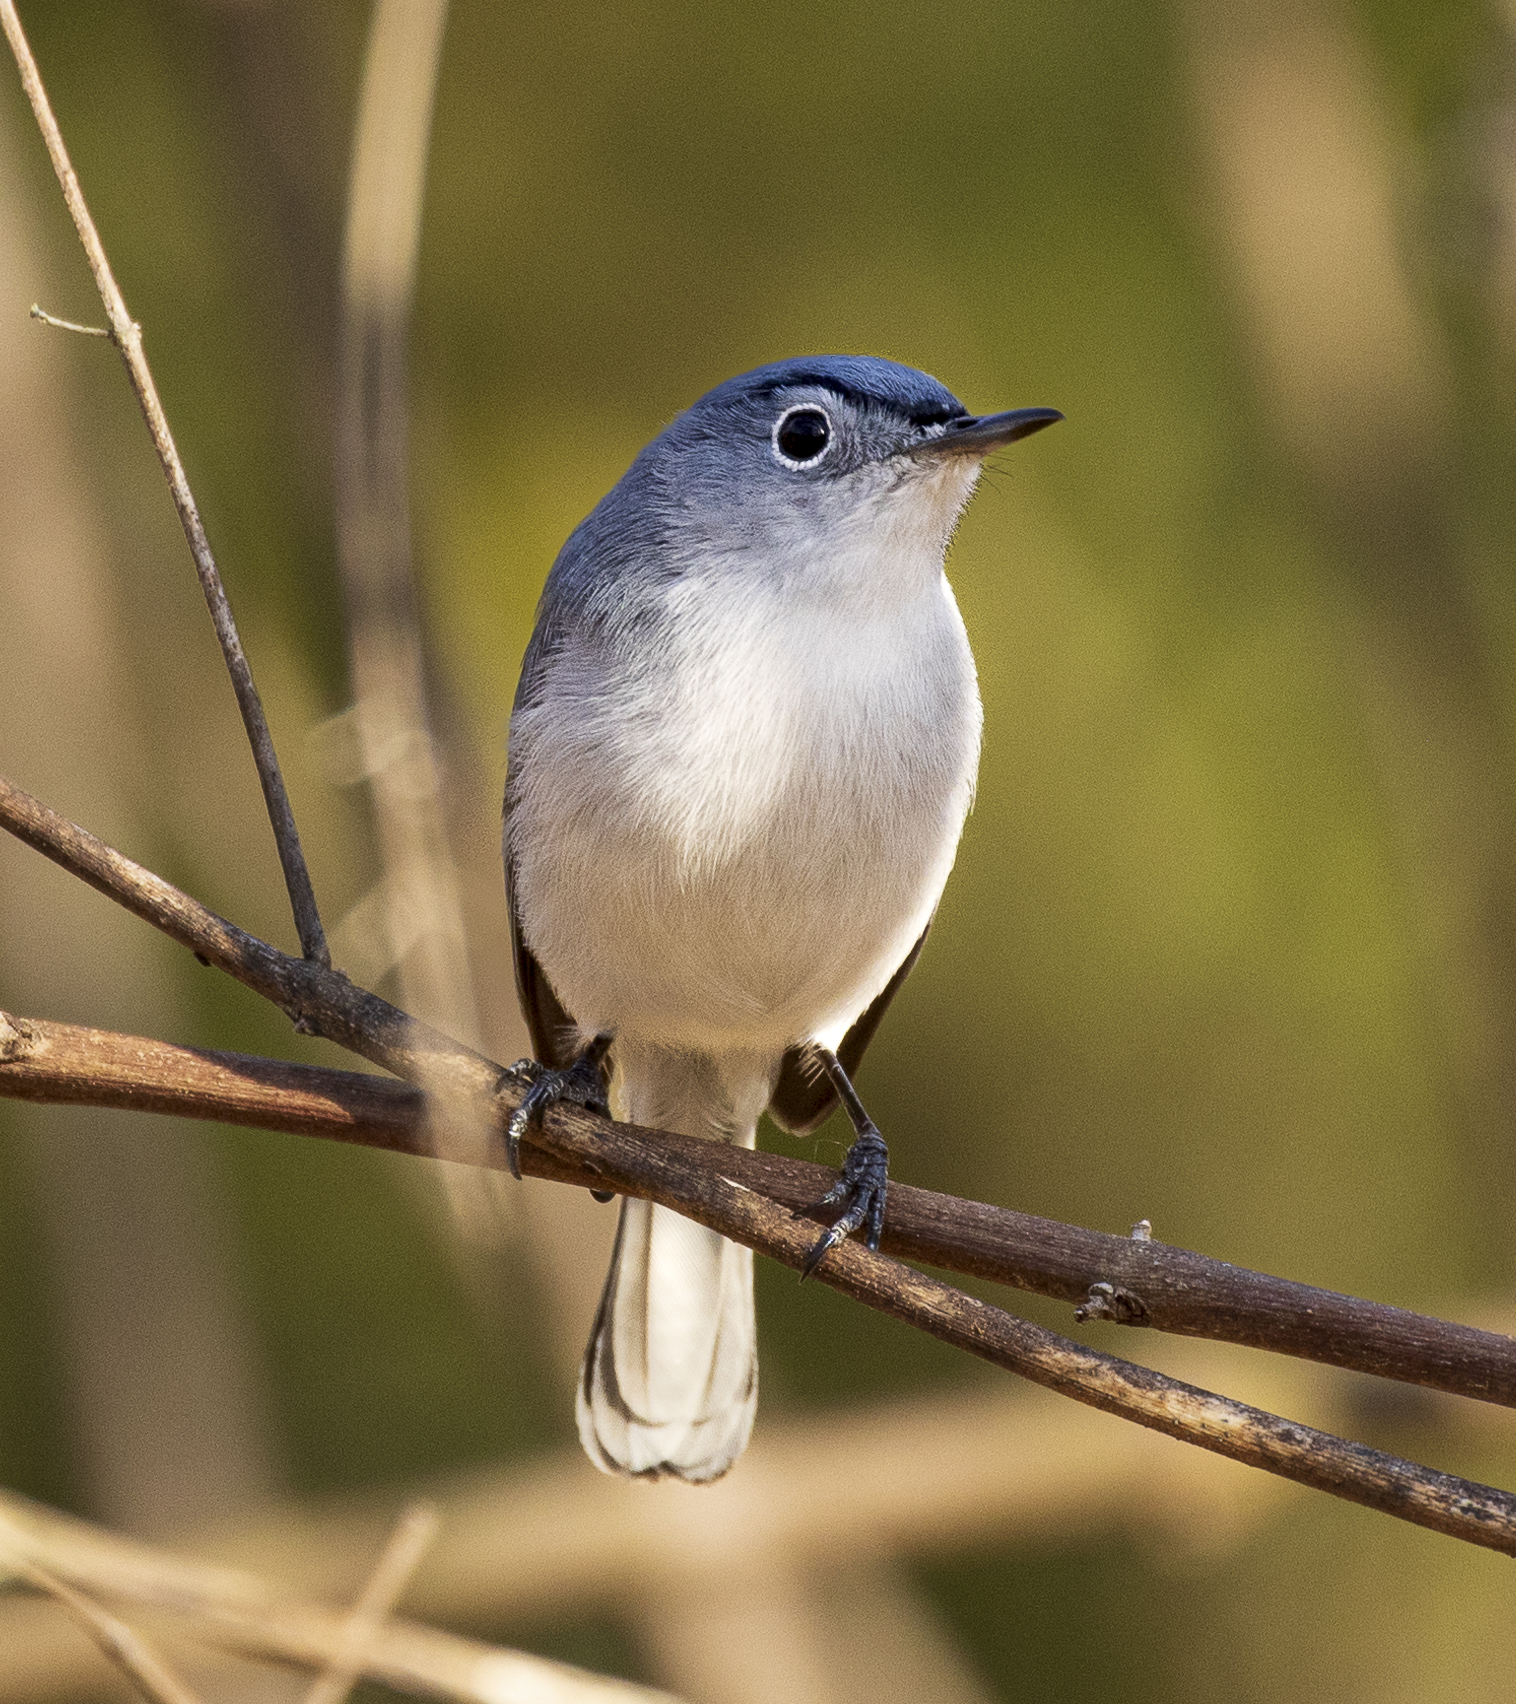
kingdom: Animalia
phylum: Chordata
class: Aves
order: Passeriformes
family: Polioptilidae
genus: Polioptila
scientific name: Polioptila caerulea
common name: Blue-gray gnatcatcher
